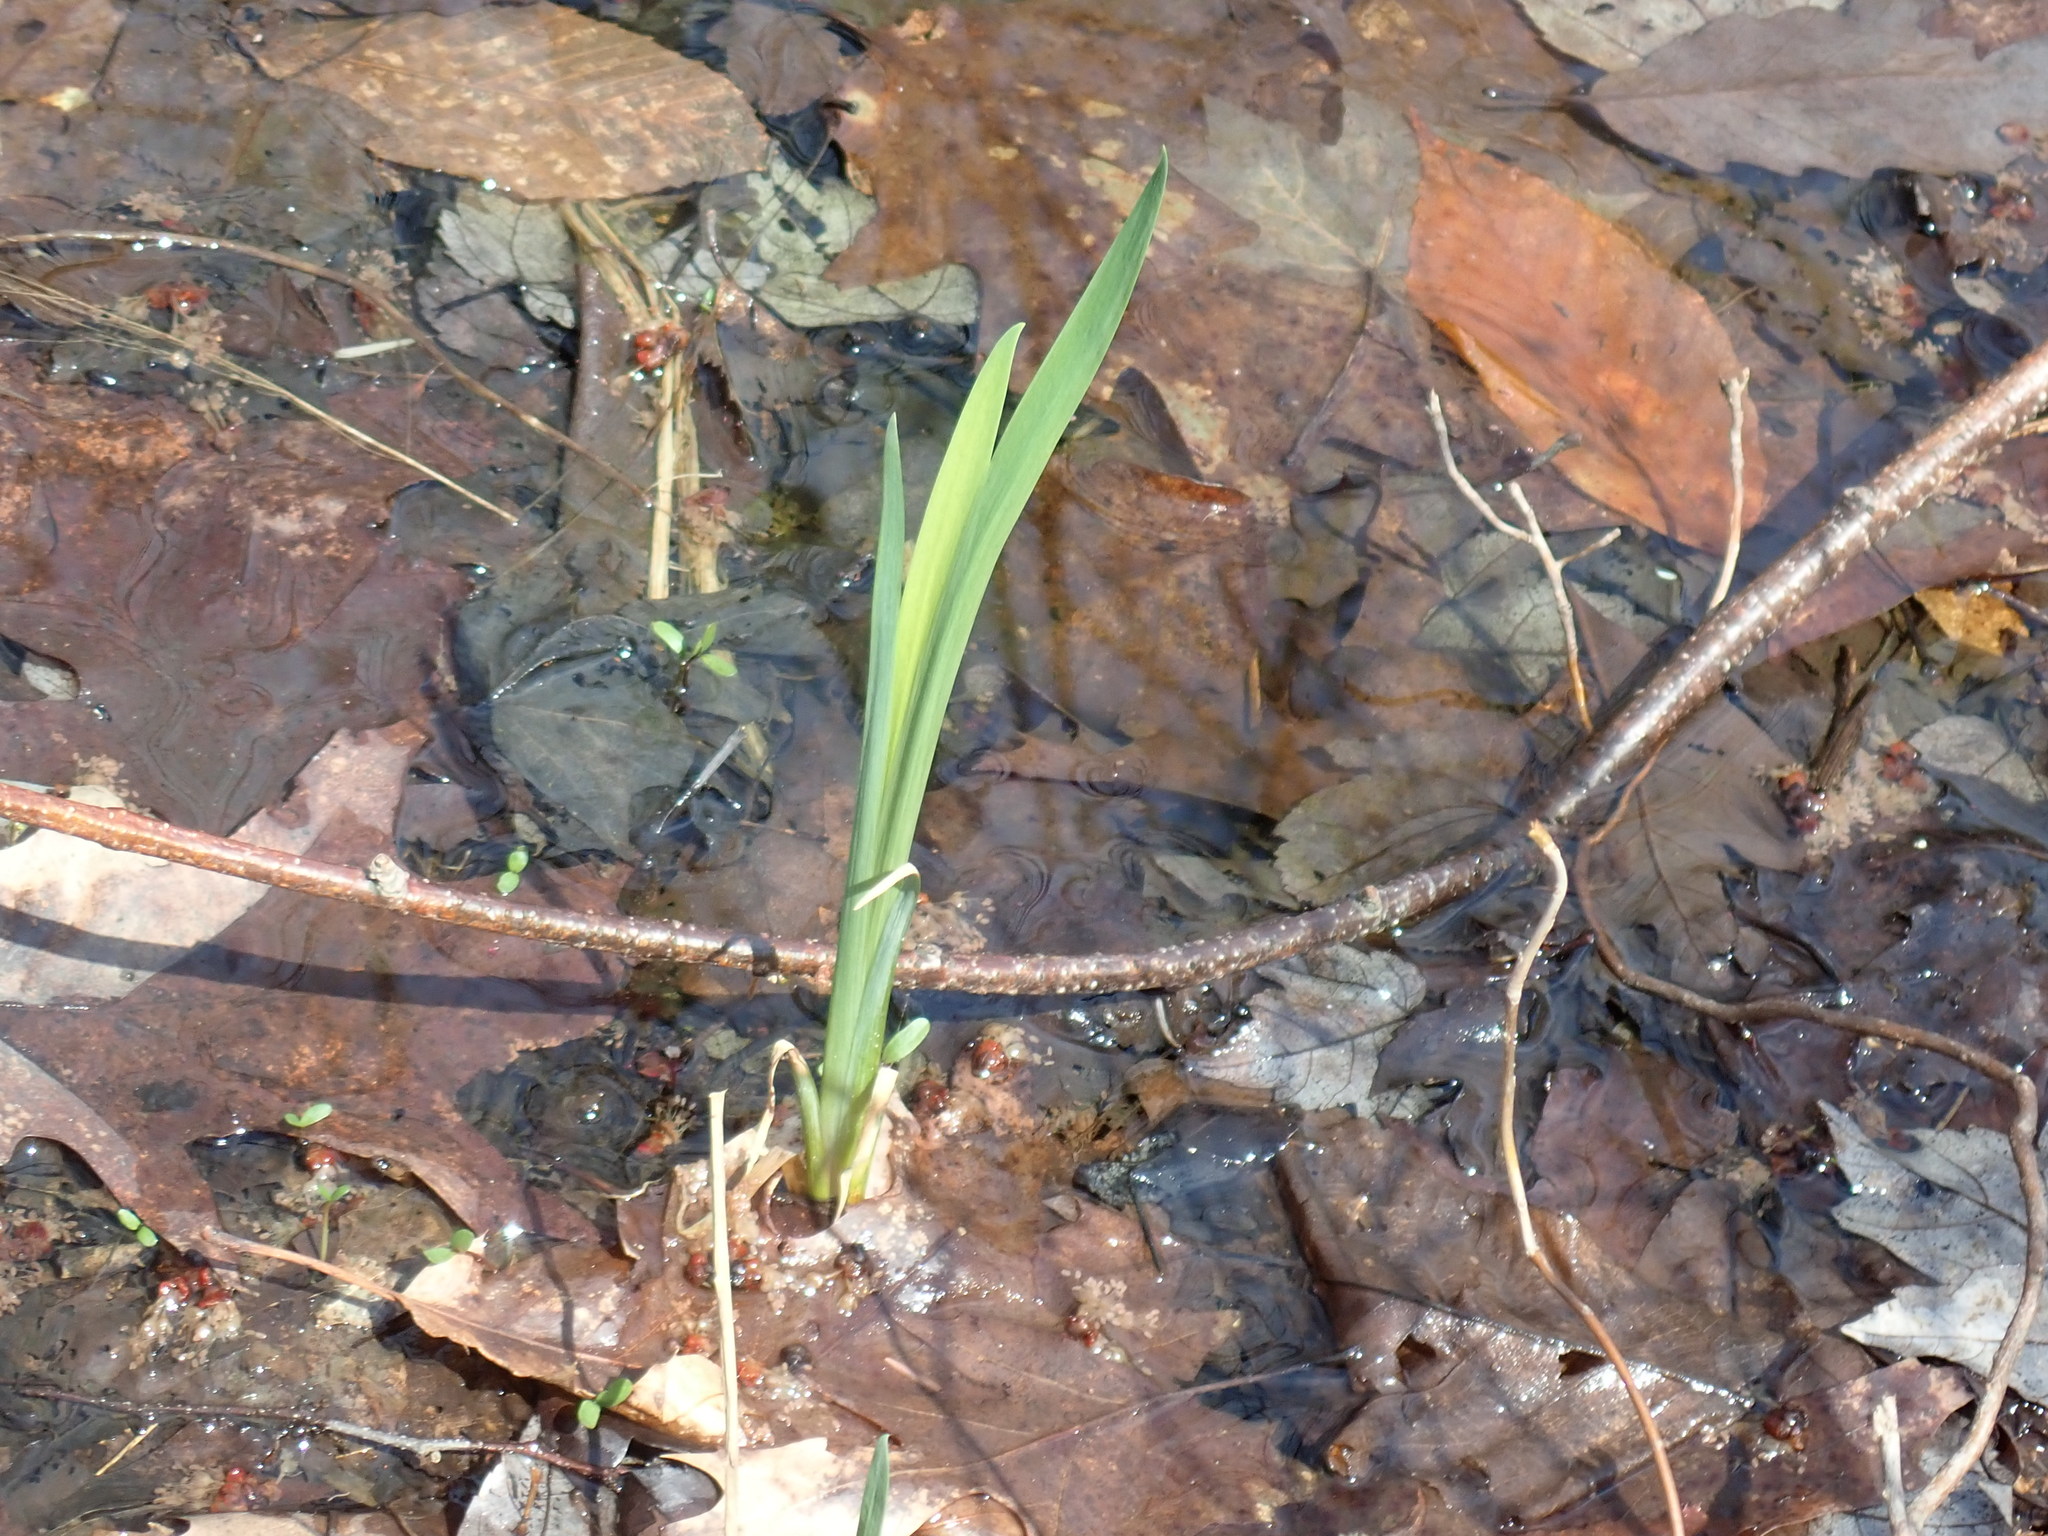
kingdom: Plantae
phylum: Tracheophyta
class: Liliopsida
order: Asparagales
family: Iridaceae
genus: Iris
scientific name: Iris
